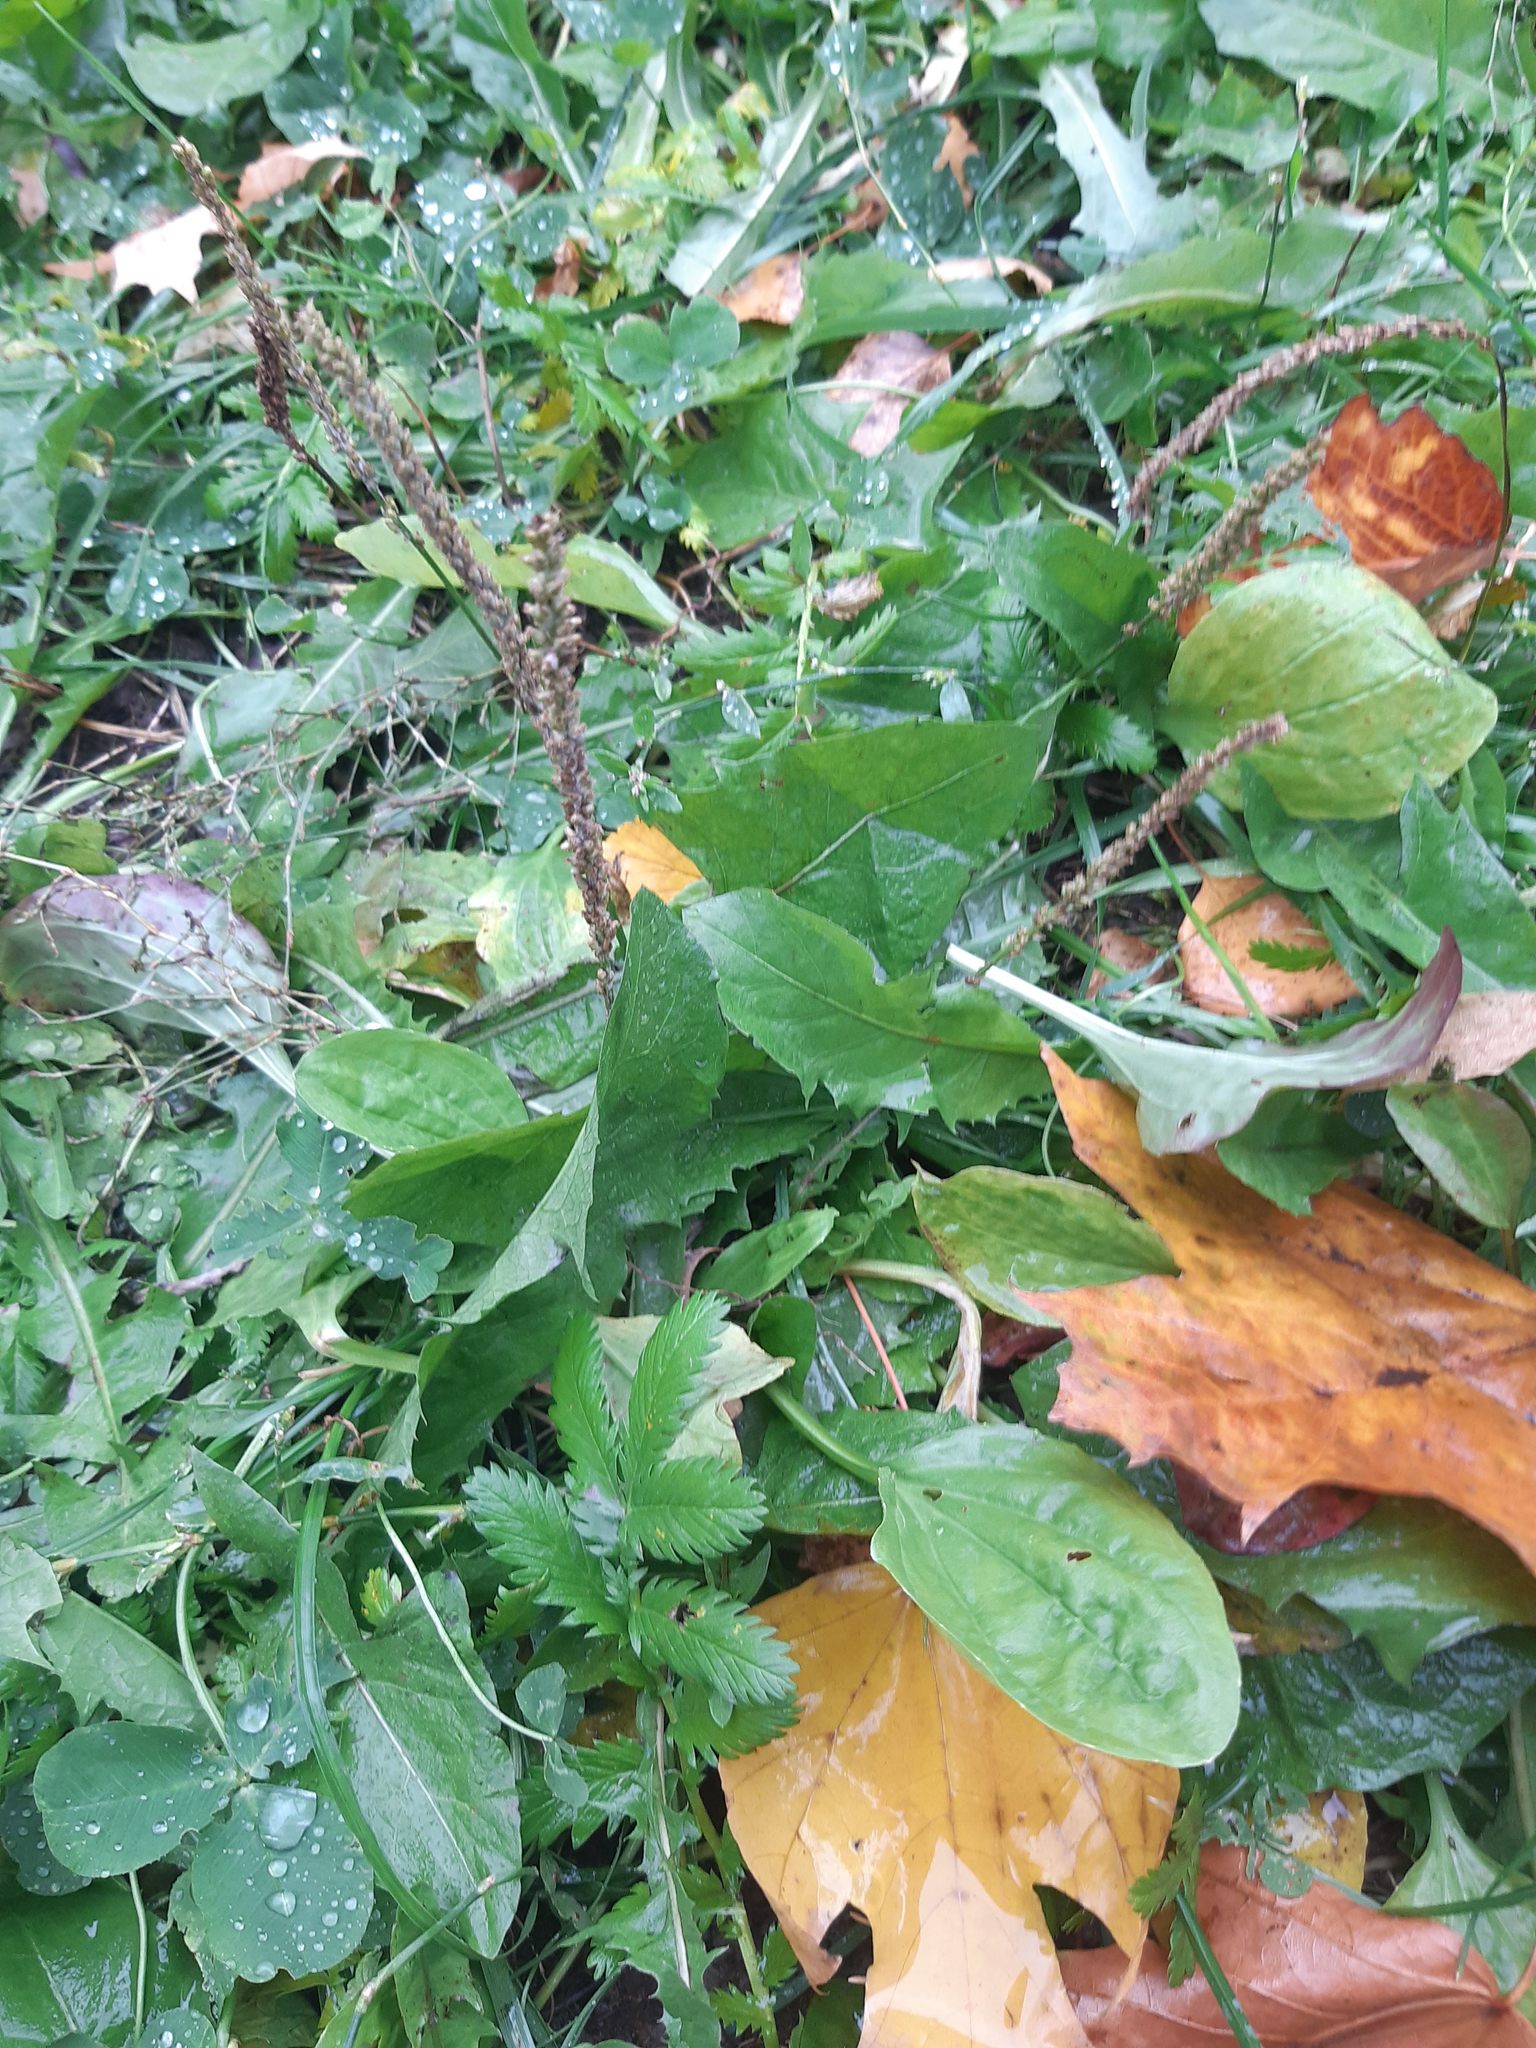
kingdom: Plantae
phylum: Tracheophyta
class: Magnoliopsida
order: Lamiales
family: Plantaginaceae
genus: Plantago
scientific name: Plantago major
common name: Common plantain
